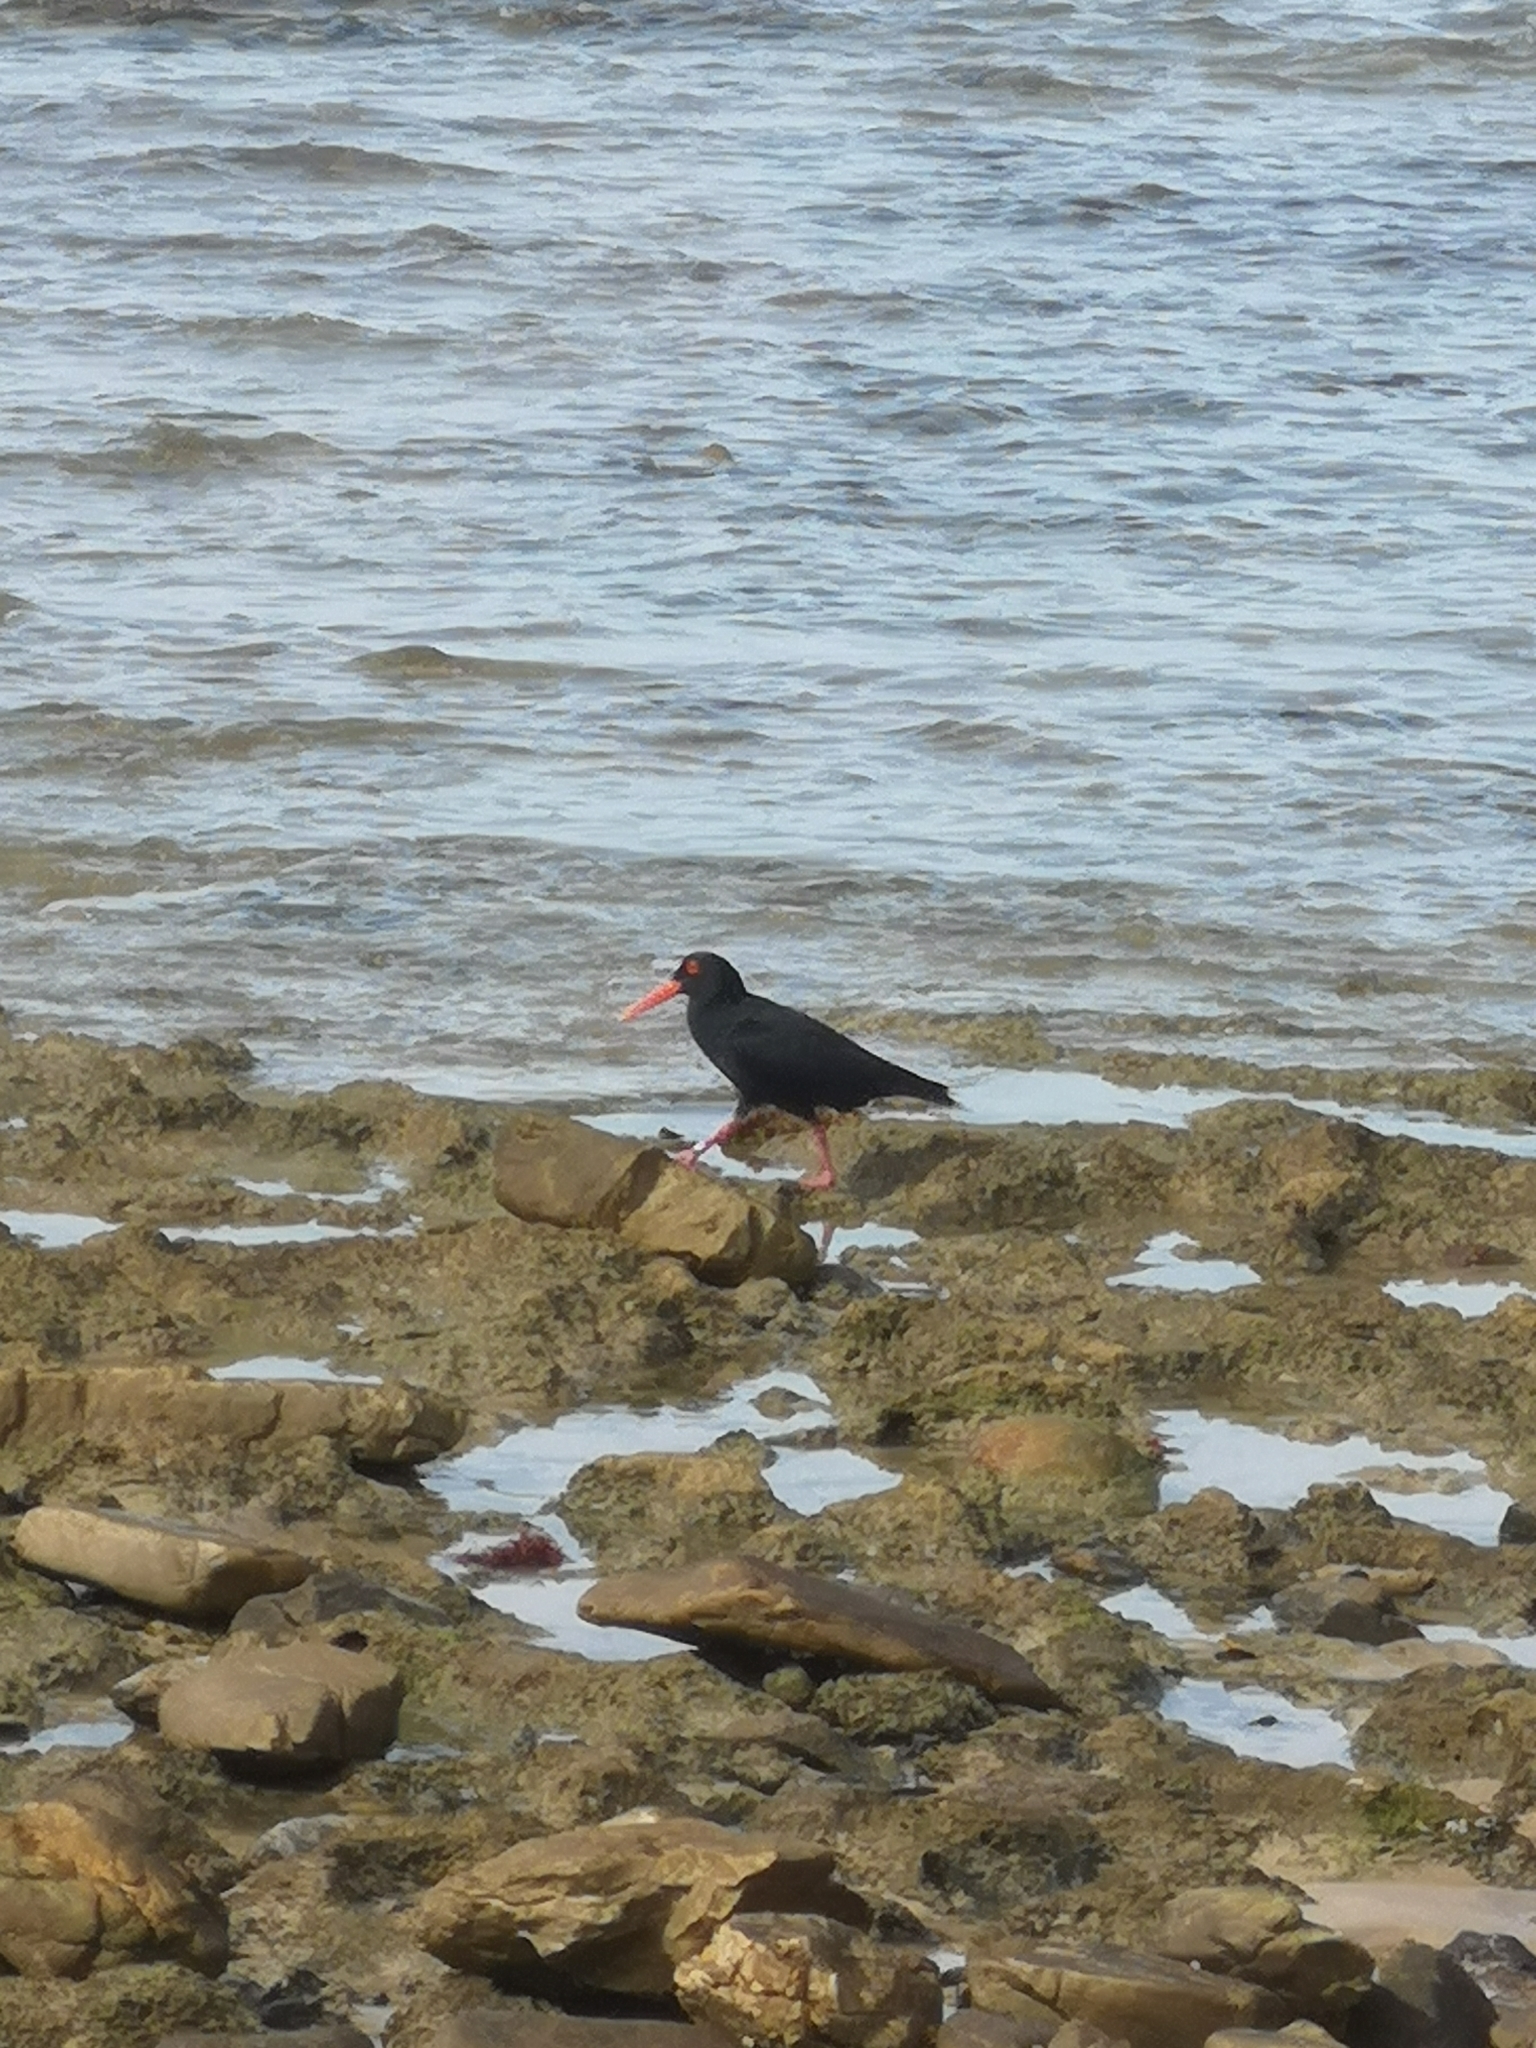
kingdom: Animalia
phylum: Chordata
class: Aves
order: Charadriiformes
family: Haematopodidae
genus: Haematopus
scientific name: Haematopus moquini
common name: African oystercatcher
